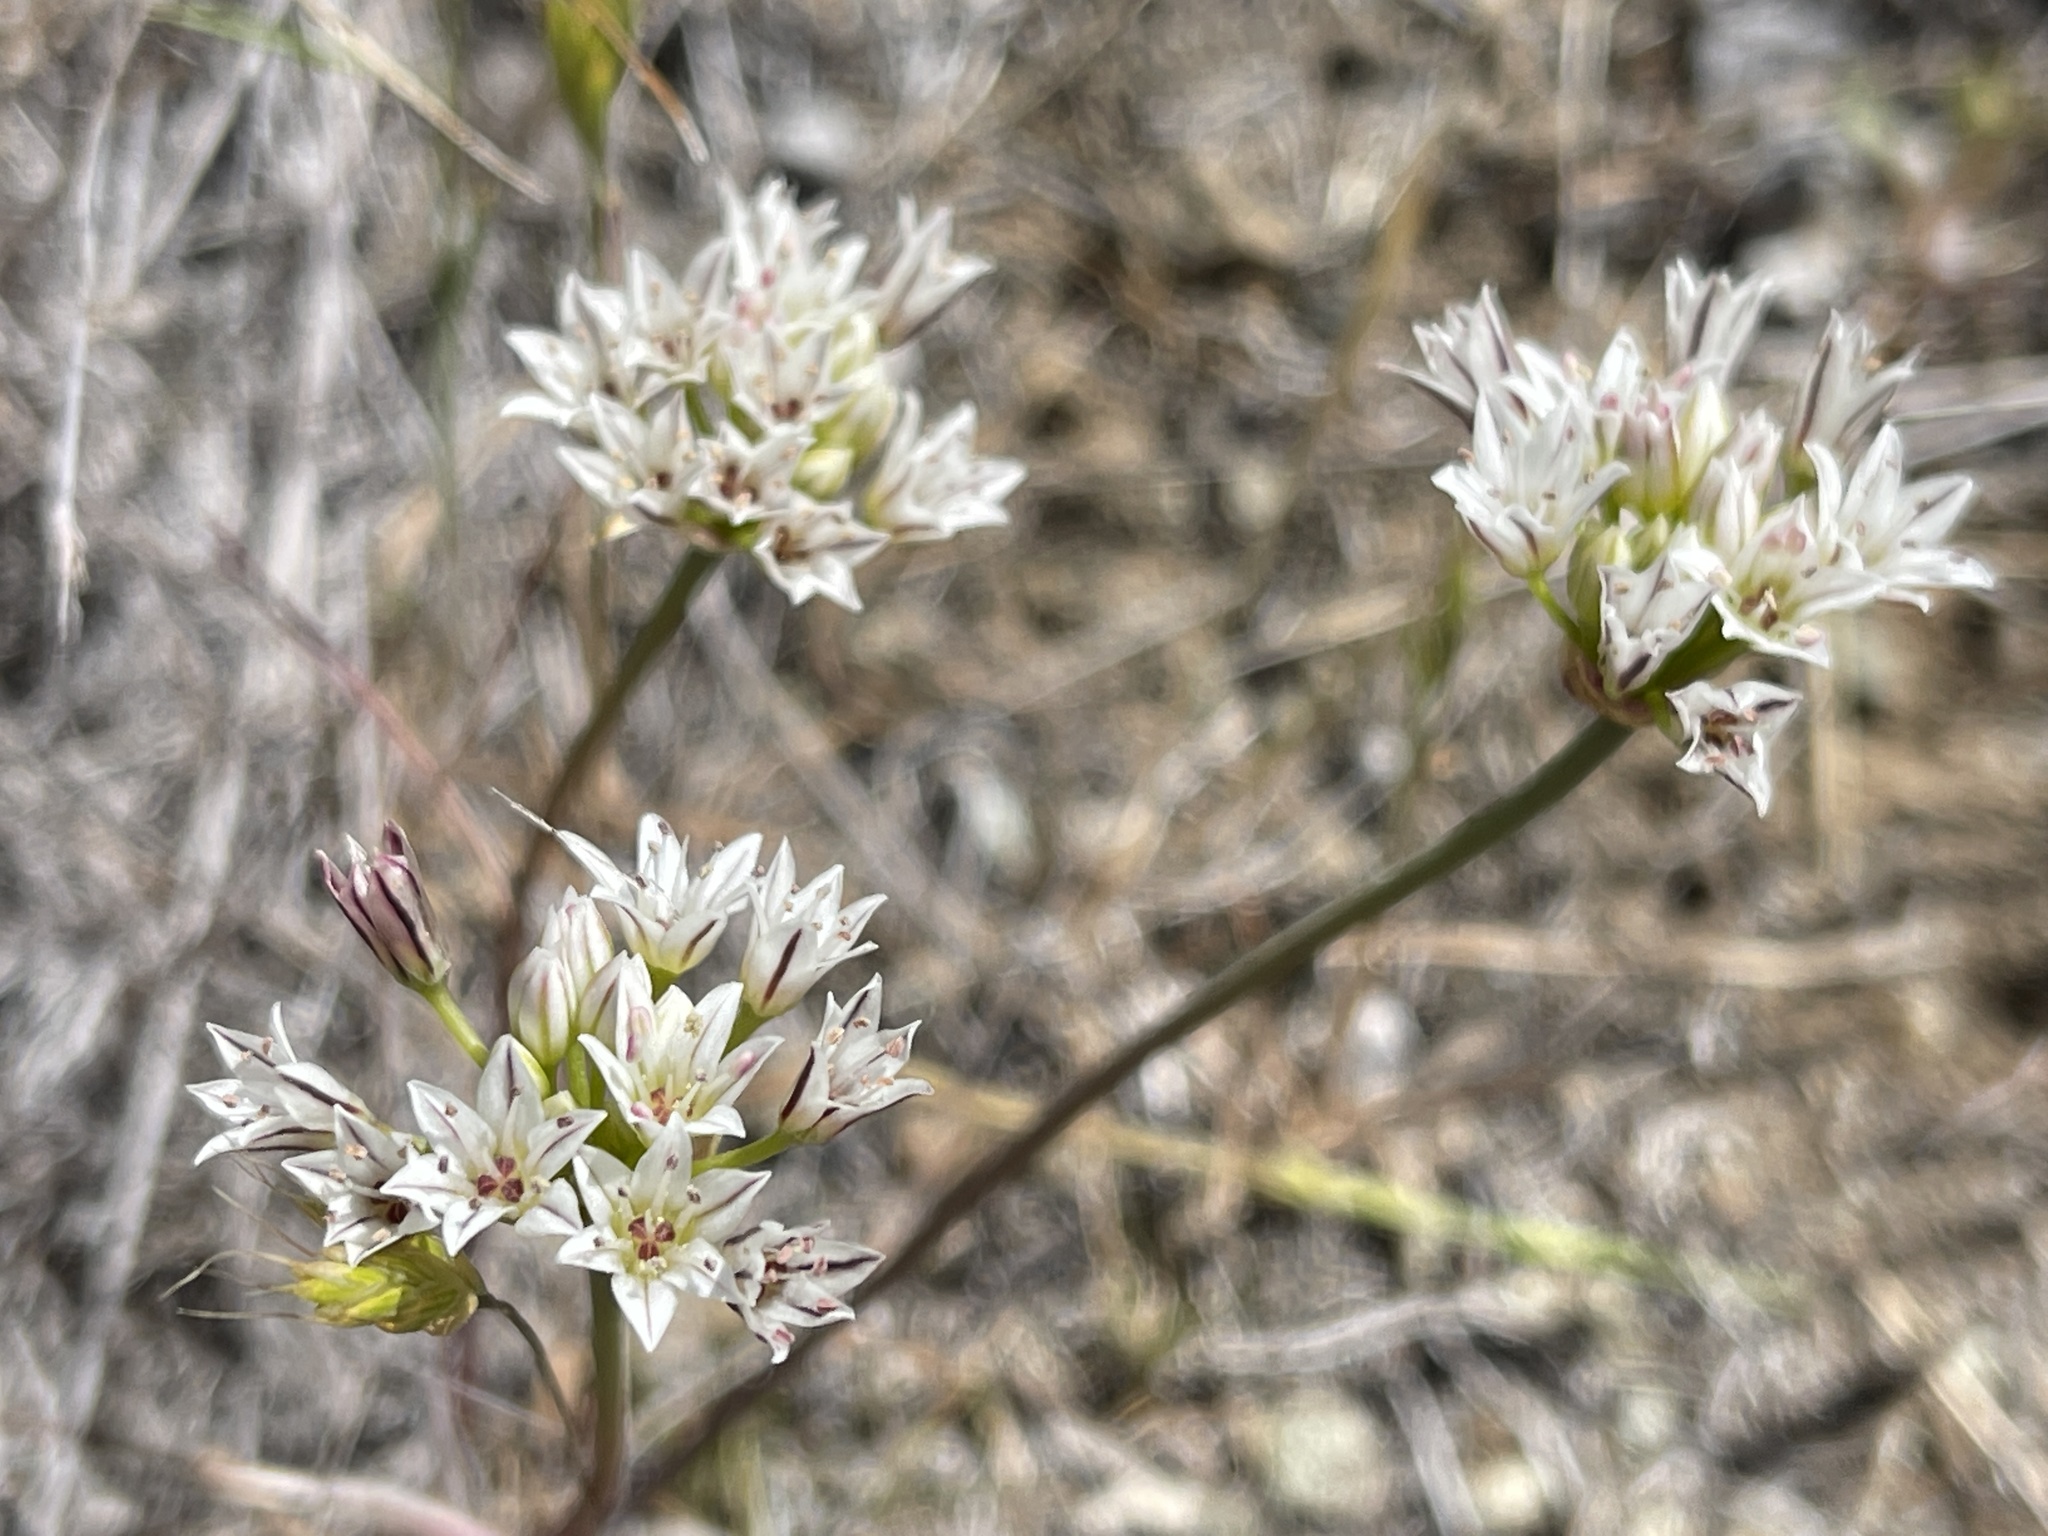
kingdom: Plantae
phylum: Tracheophyta
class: Liliopsida
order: Asparagales
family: Amaryllidaceae
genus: Allium
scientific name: Allium lacunosum
